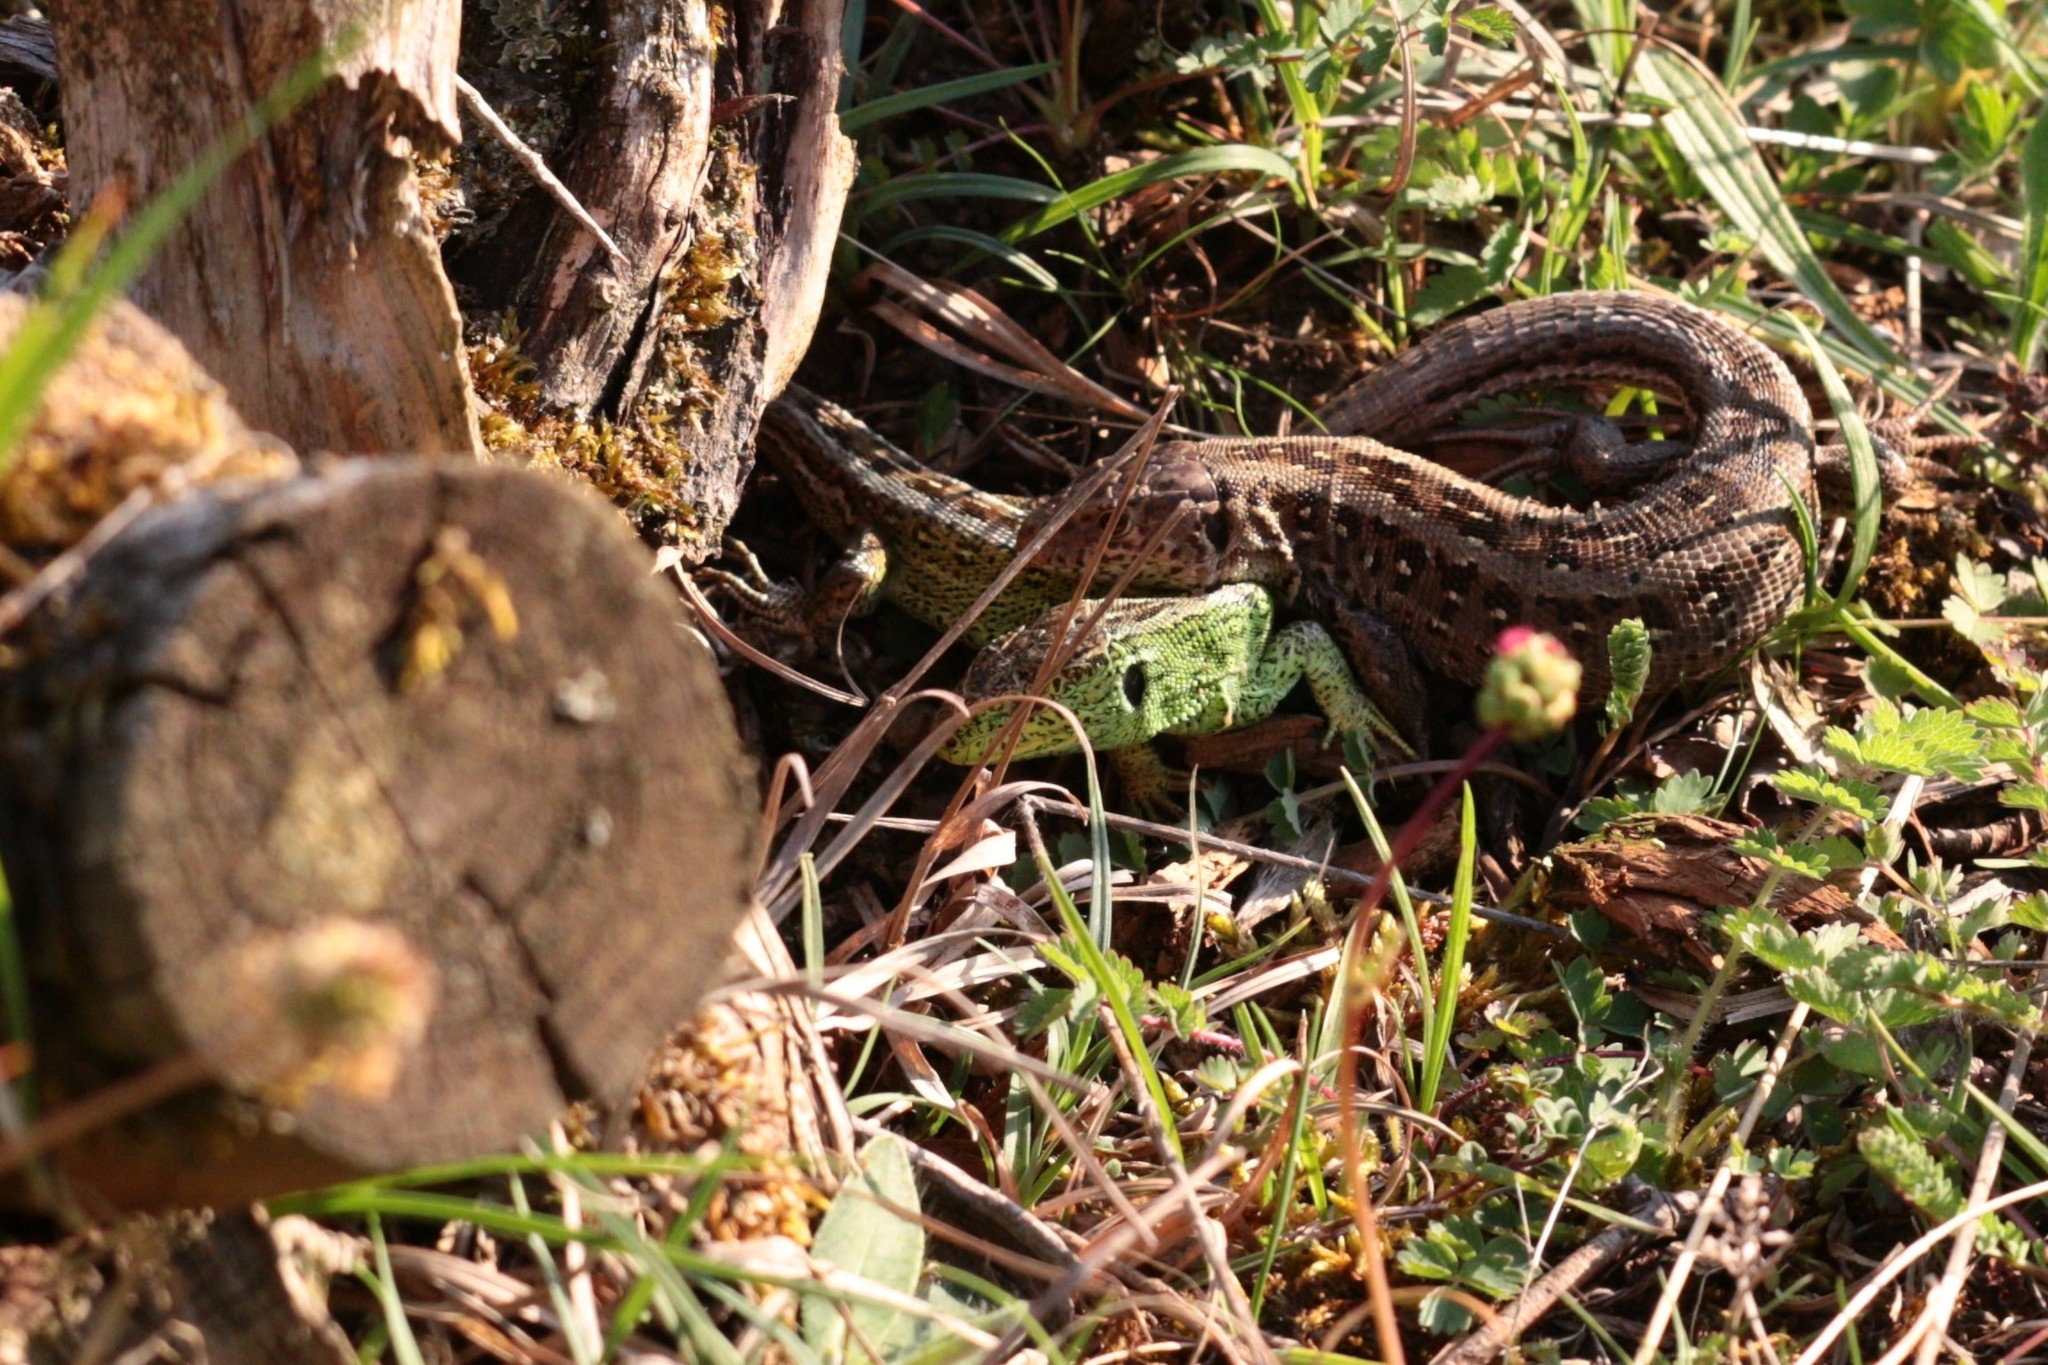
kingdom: Animalia
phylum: Chordata
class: Squamata
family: Lacertidae
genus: Lacerta
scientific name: Lacerta agilis
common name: Sand lizard
